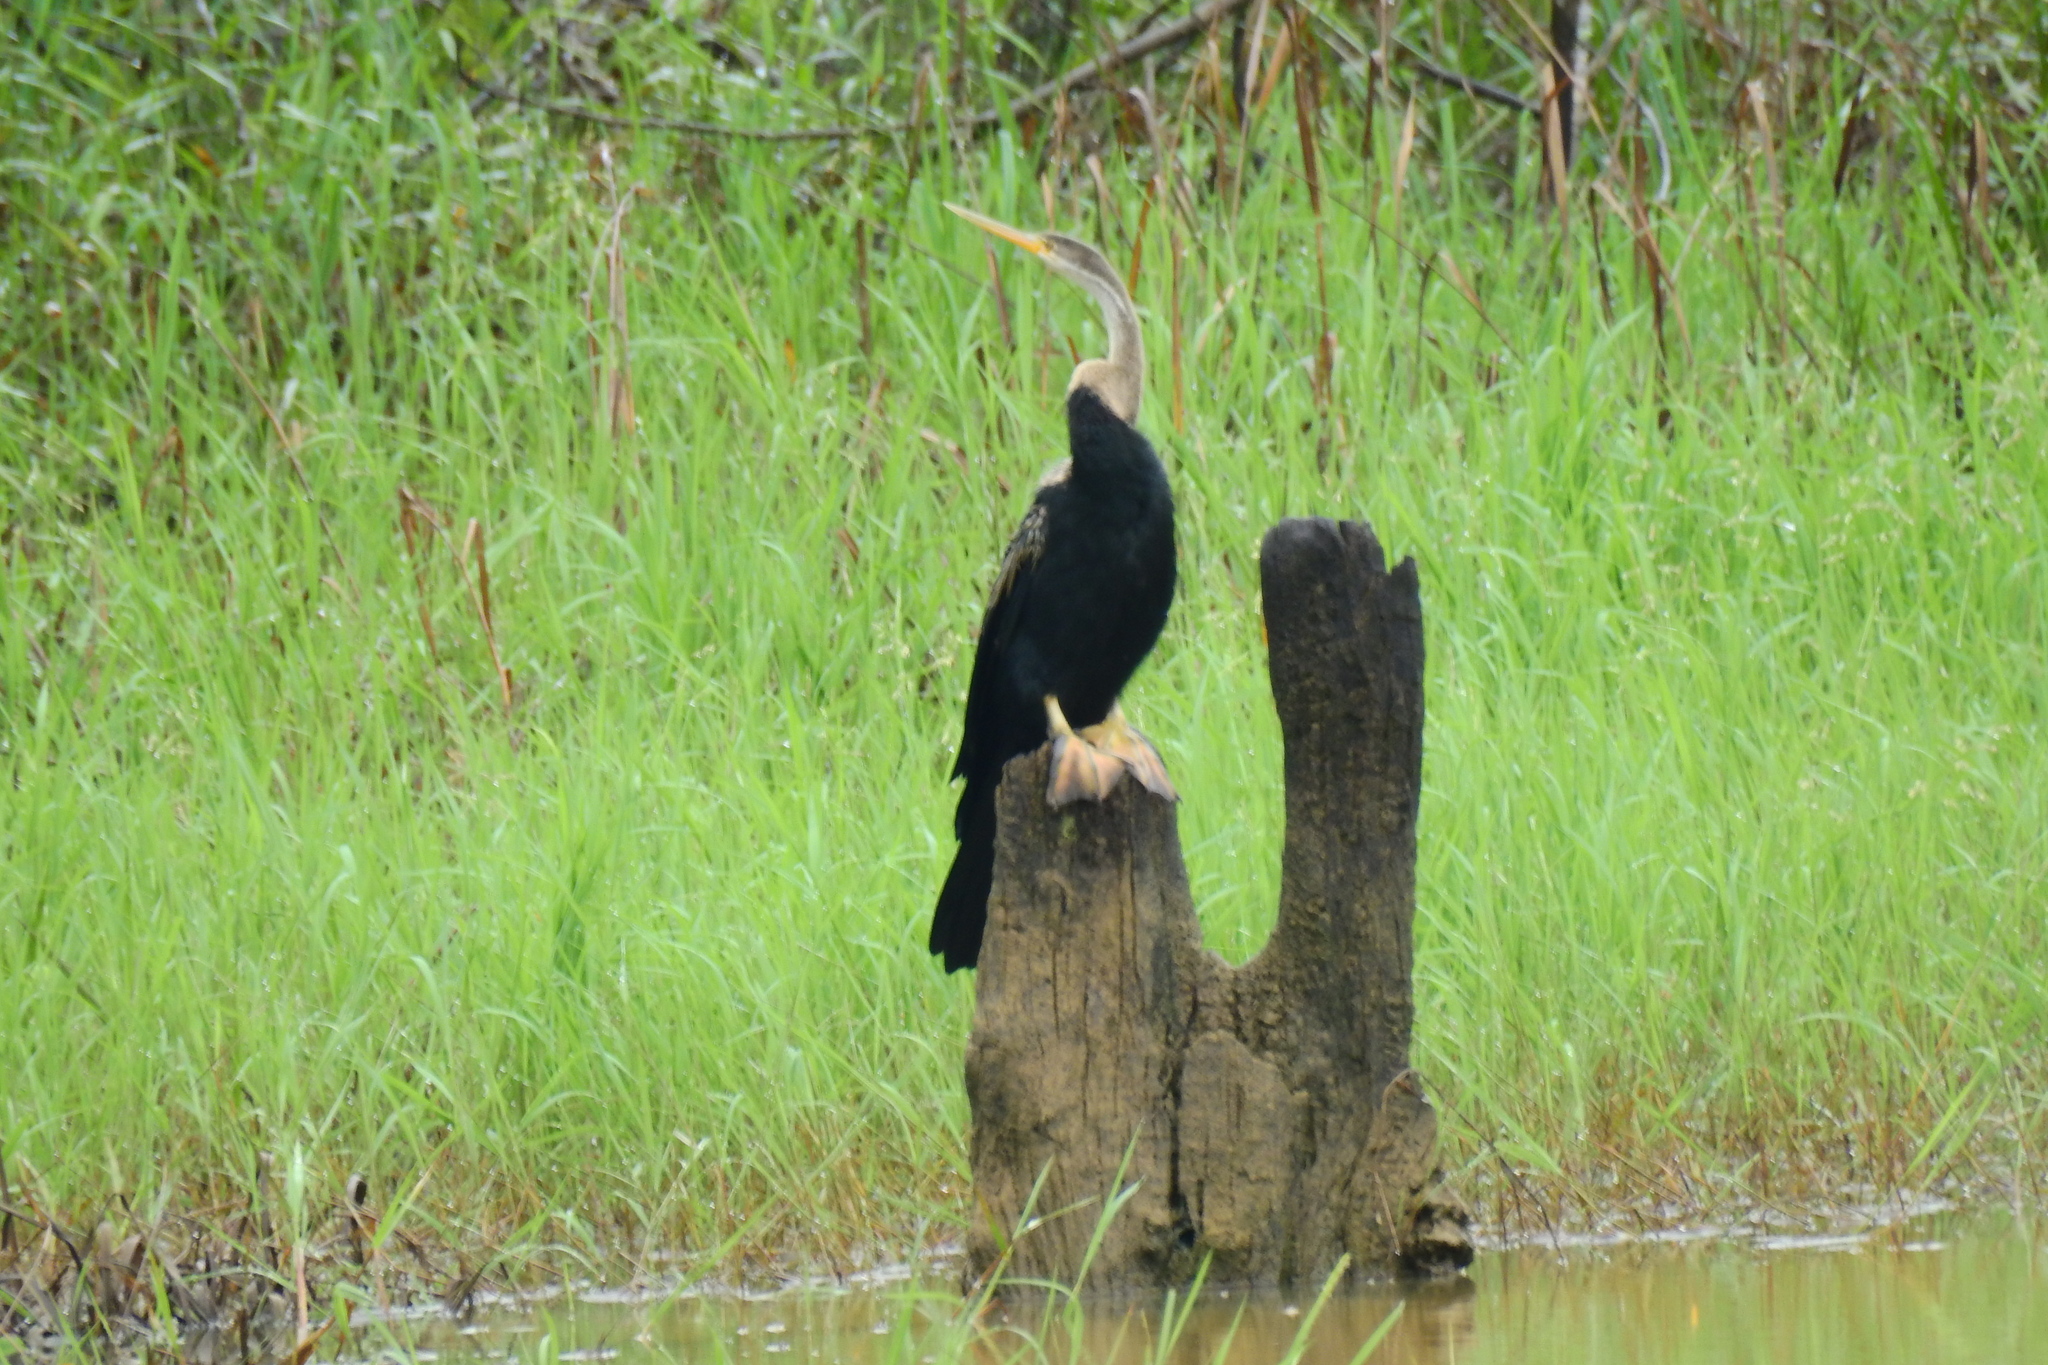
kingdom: Animalia
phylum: Chordata
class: Aves
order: Suliformes
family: Anhingidae
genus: Anhinga
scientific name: Anhinga melanogaster
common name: Oriental darter
